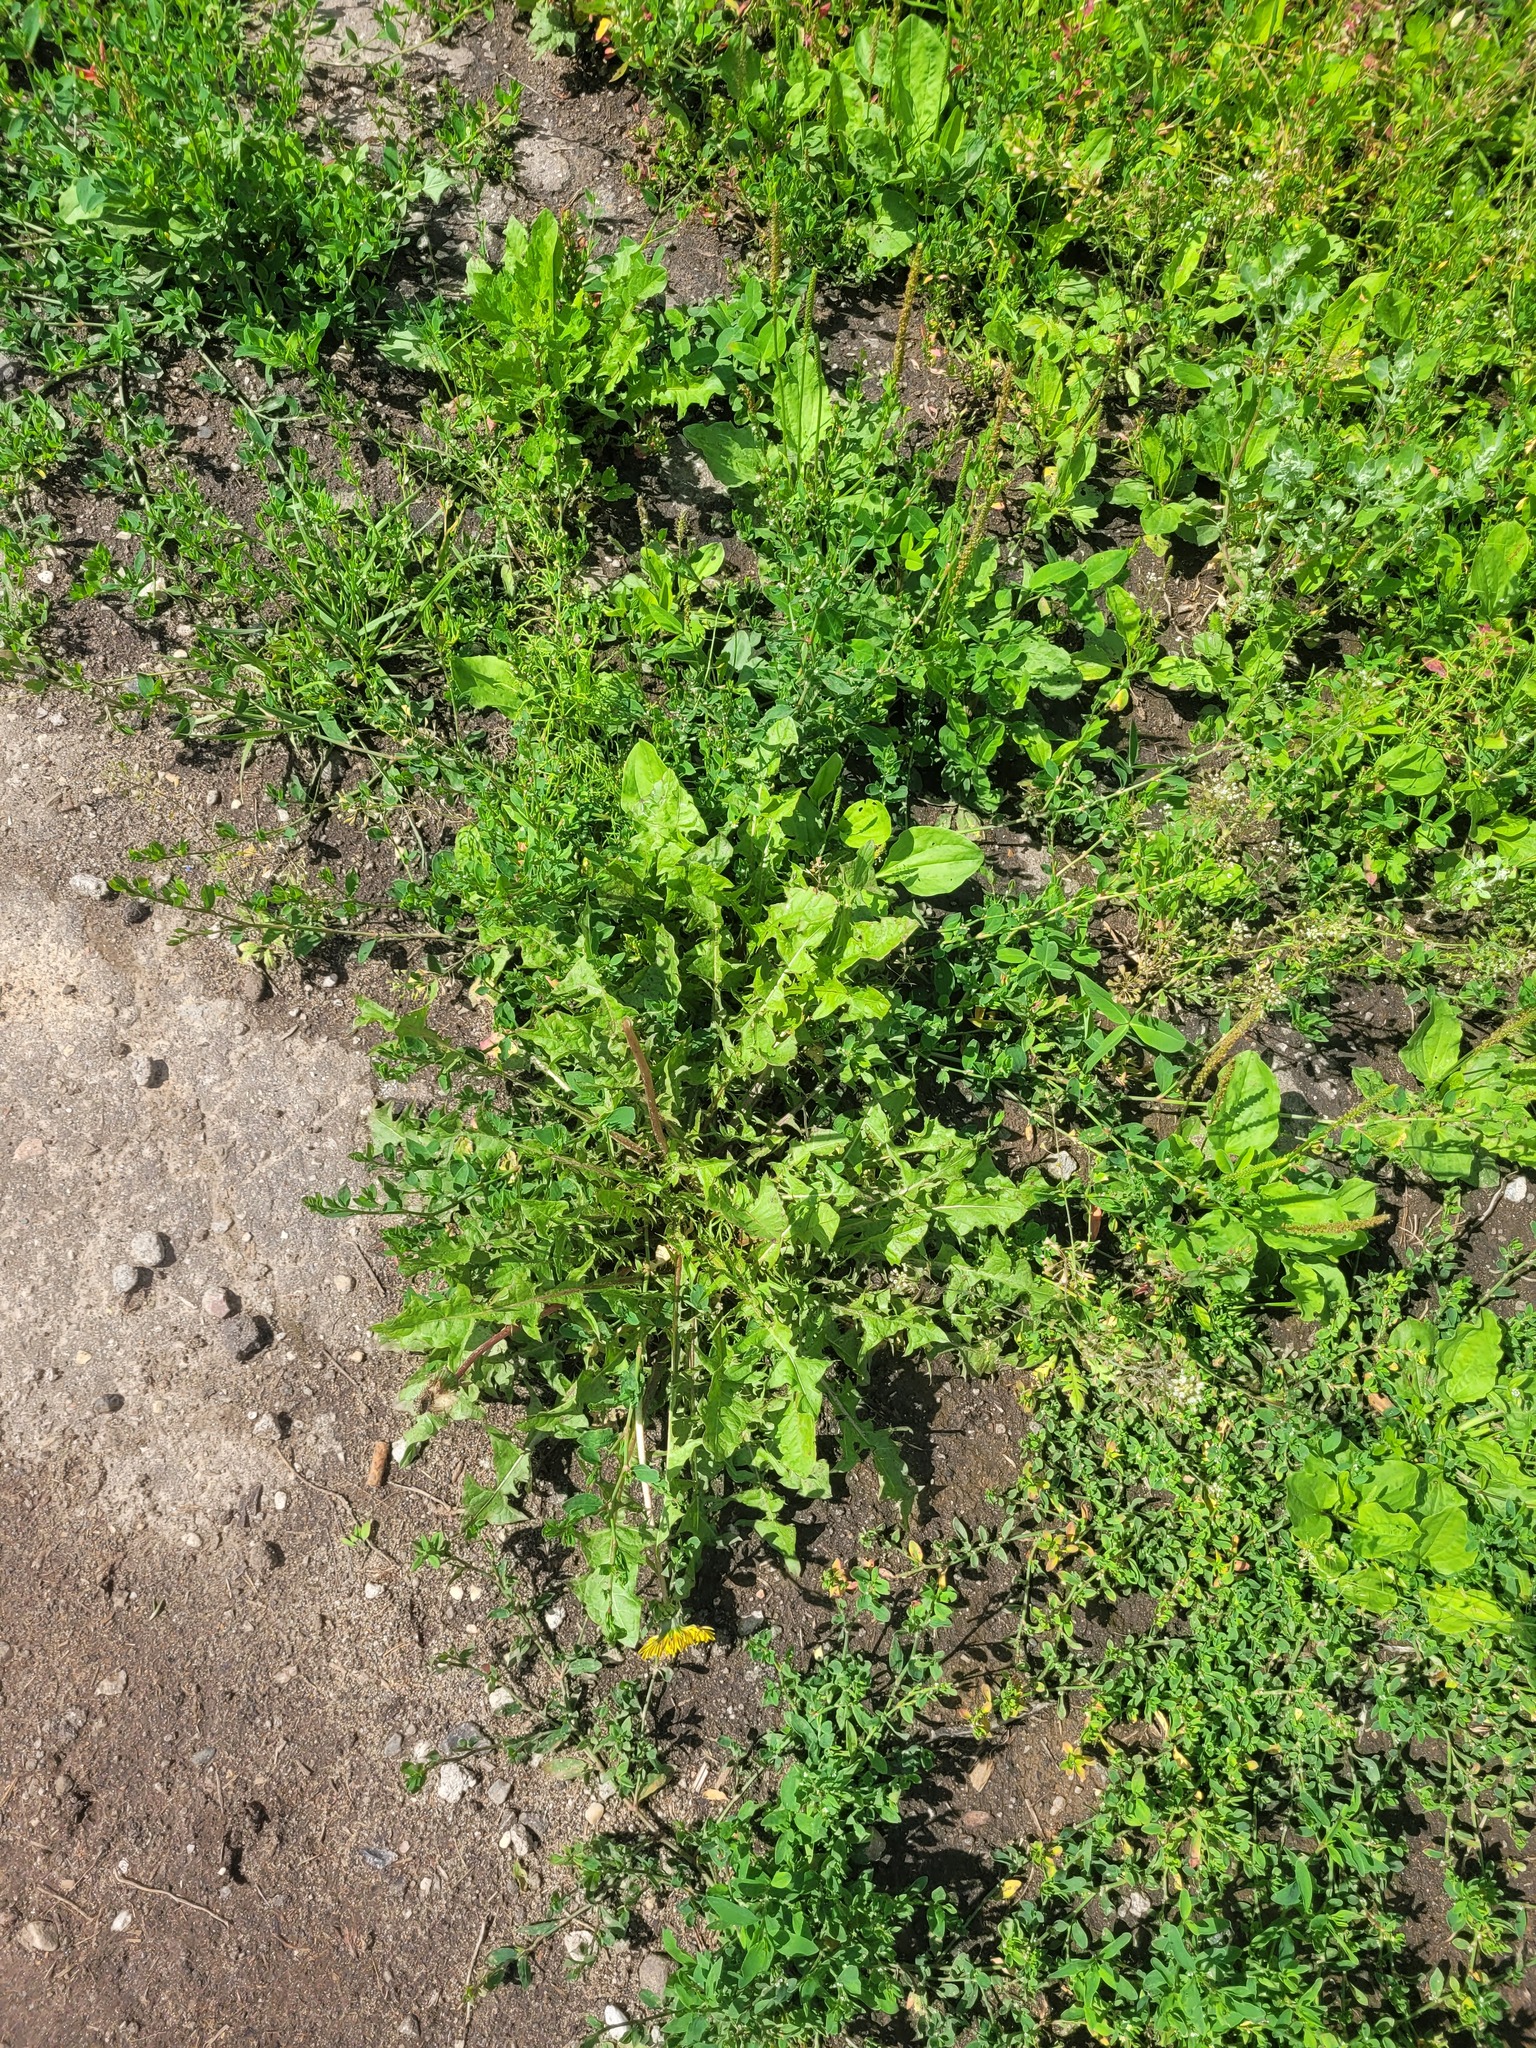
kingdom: Plantae
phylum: Tracheophyta
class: Magnoliopsida
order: Asterales
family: Asteraceae
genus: Taraxacum
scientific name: Taraxacum officinale
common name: Common dandelion
